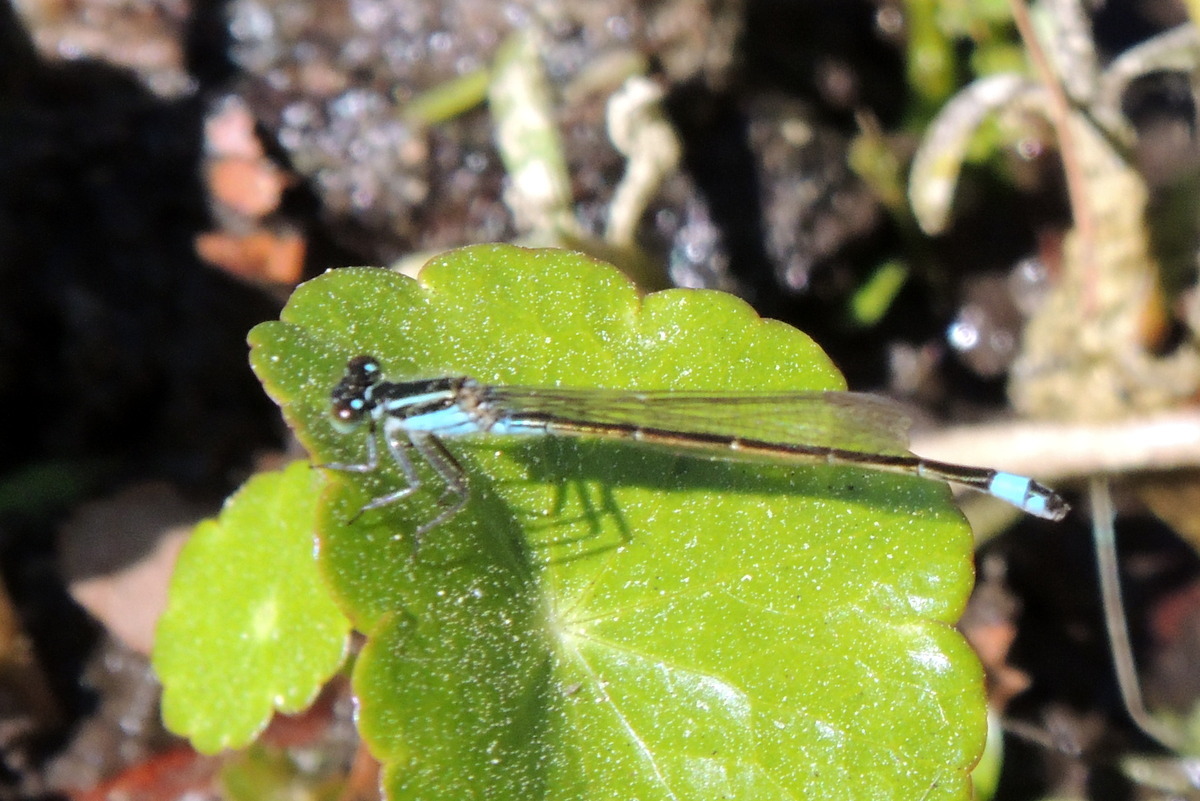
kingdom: Animalia
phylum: Arthropoda
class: Insecta
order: Odonata
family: Coenagrionidae
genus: Ischnura
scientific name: Ischnura ramburii
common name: Rambur's forktail
